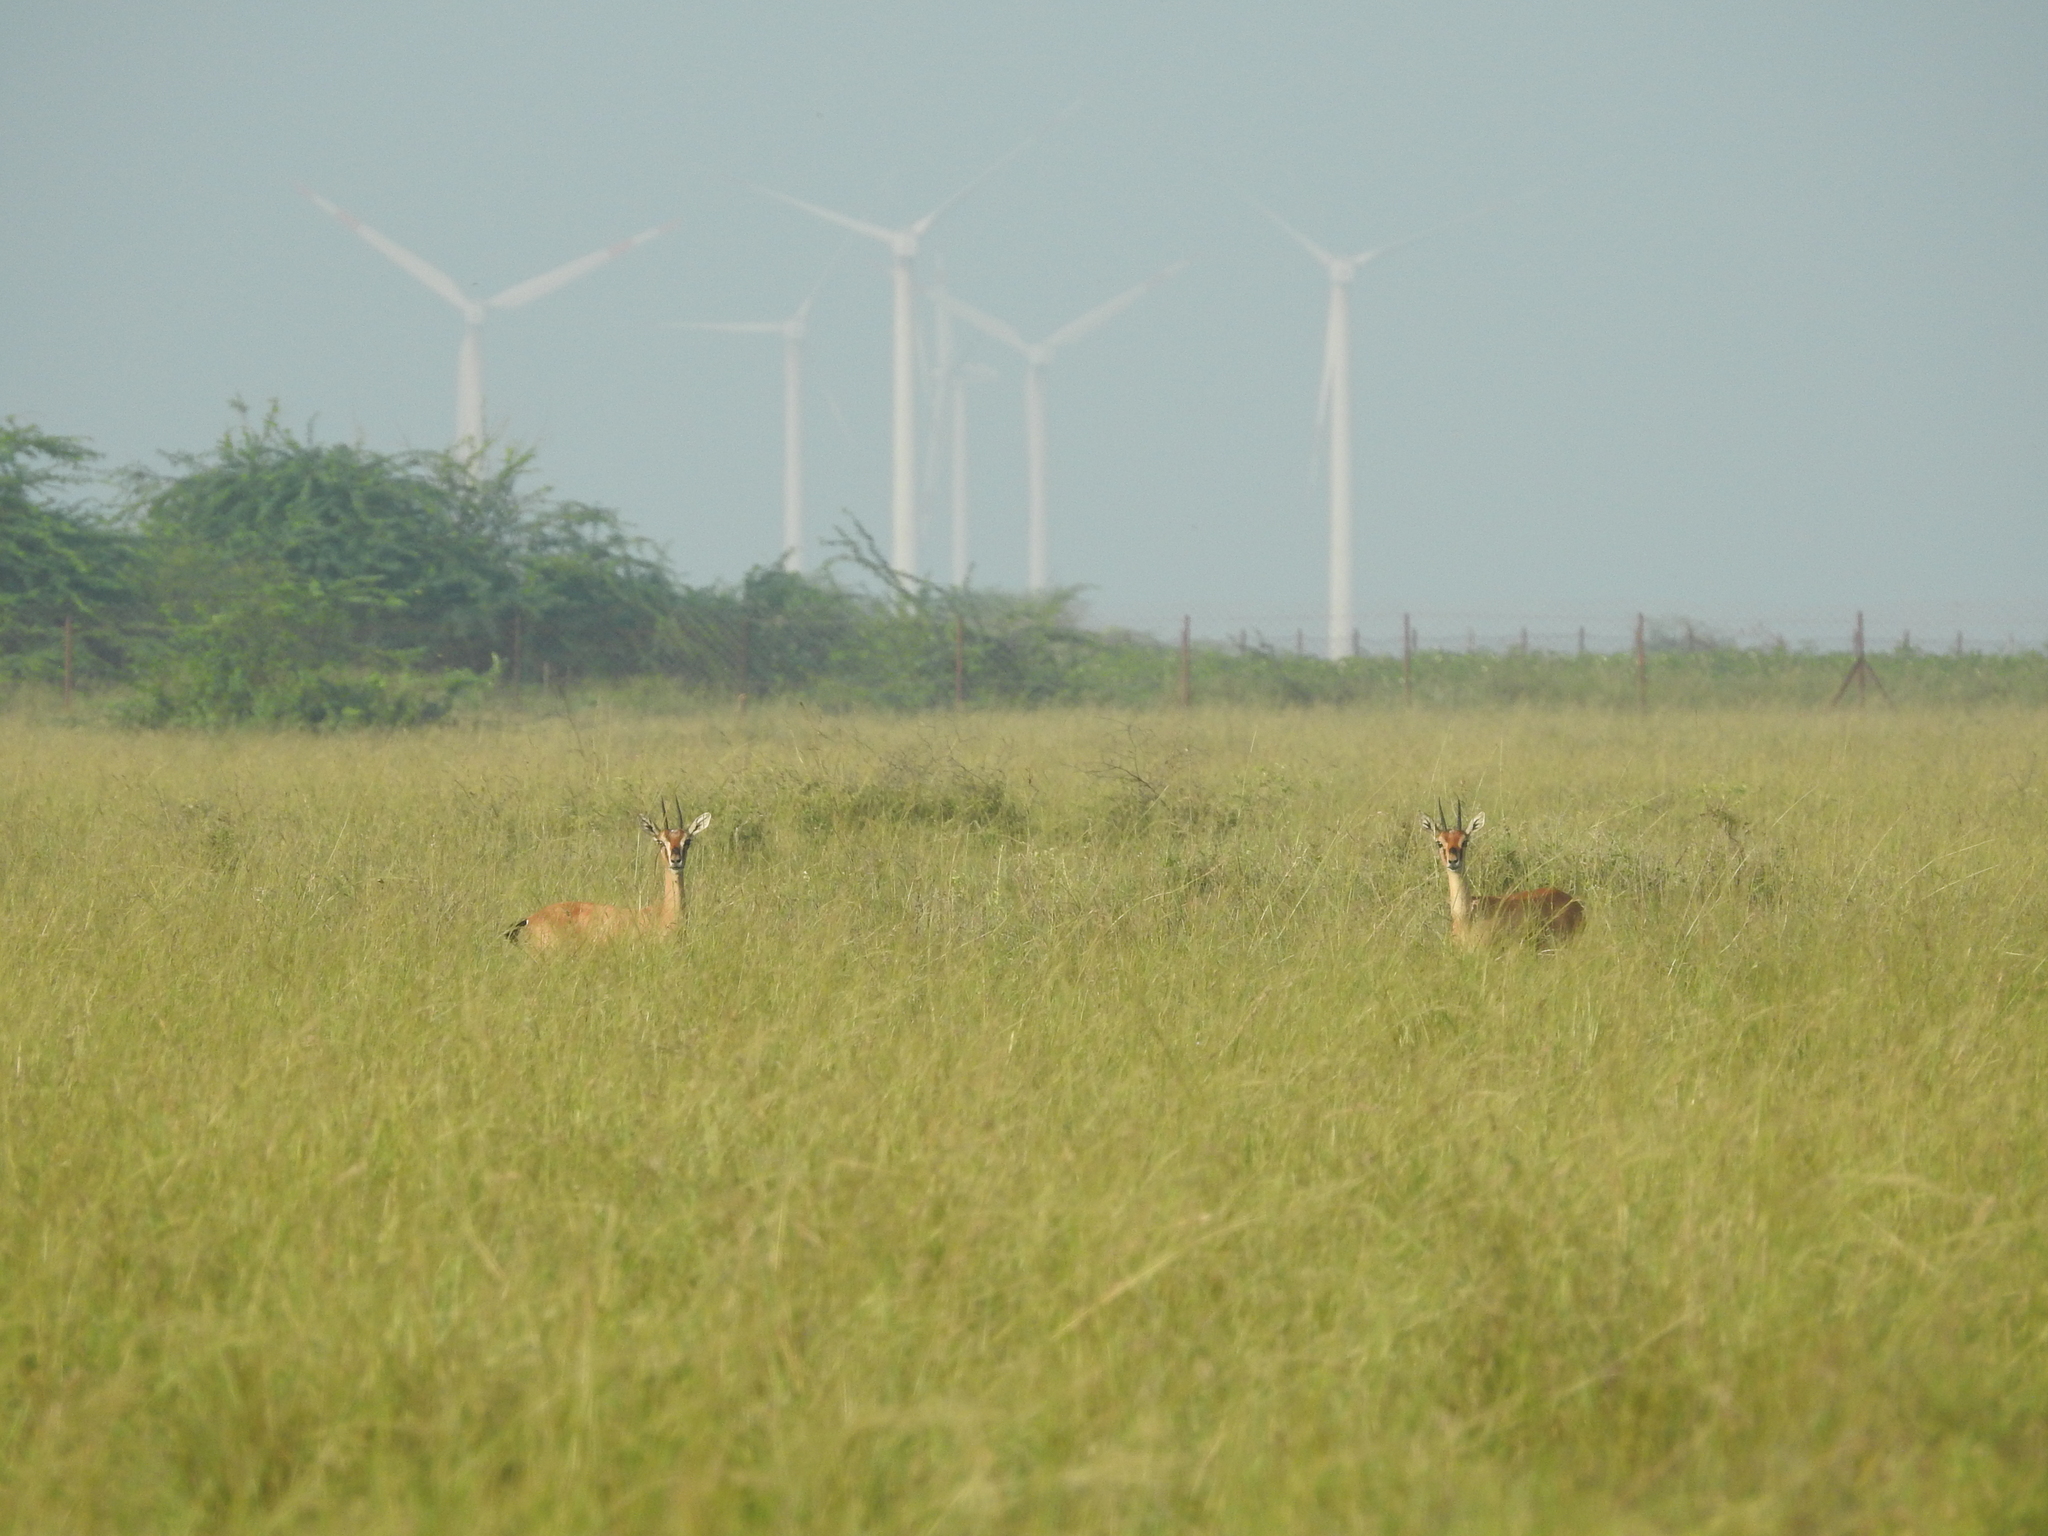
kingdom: Animalia
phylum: Chordata
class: Mammalia
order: Artiodactyla
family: Bovidae
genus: Gazella
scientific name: Gazella bennettii
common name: Indian gazelle
